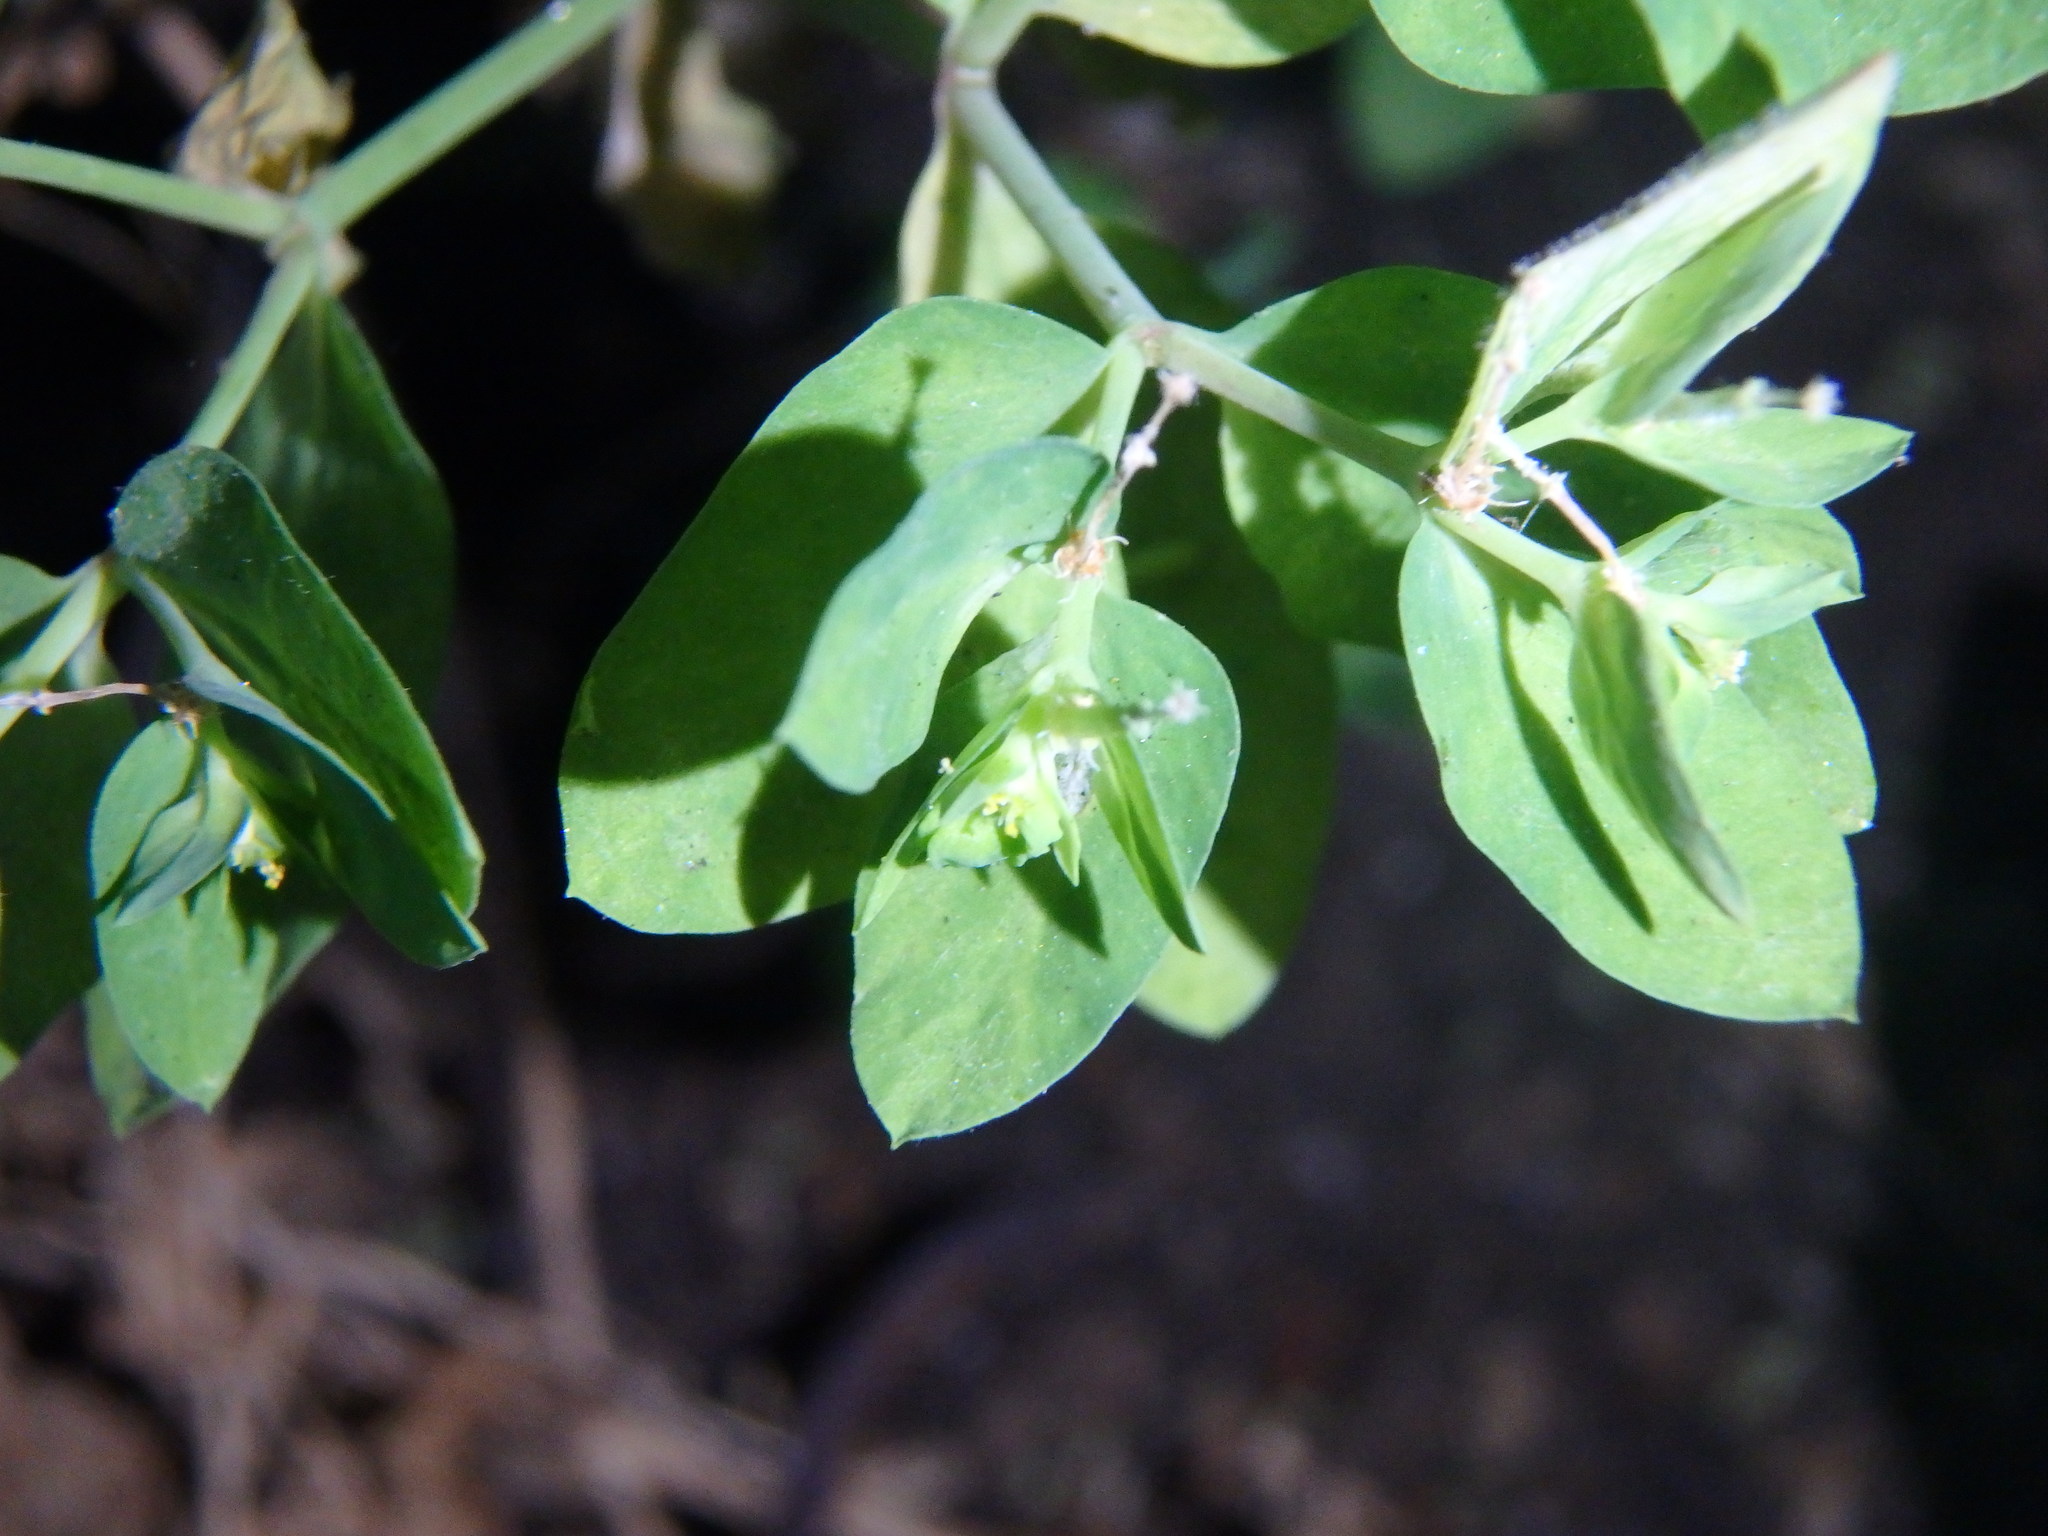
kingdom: Plantae
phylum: Tracheophyta
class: Magnoliopsida
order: Malpighiales
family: Euphorbiaceae
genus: Euphorbia
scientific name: Euphorbia peplus
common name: Petty spurge
